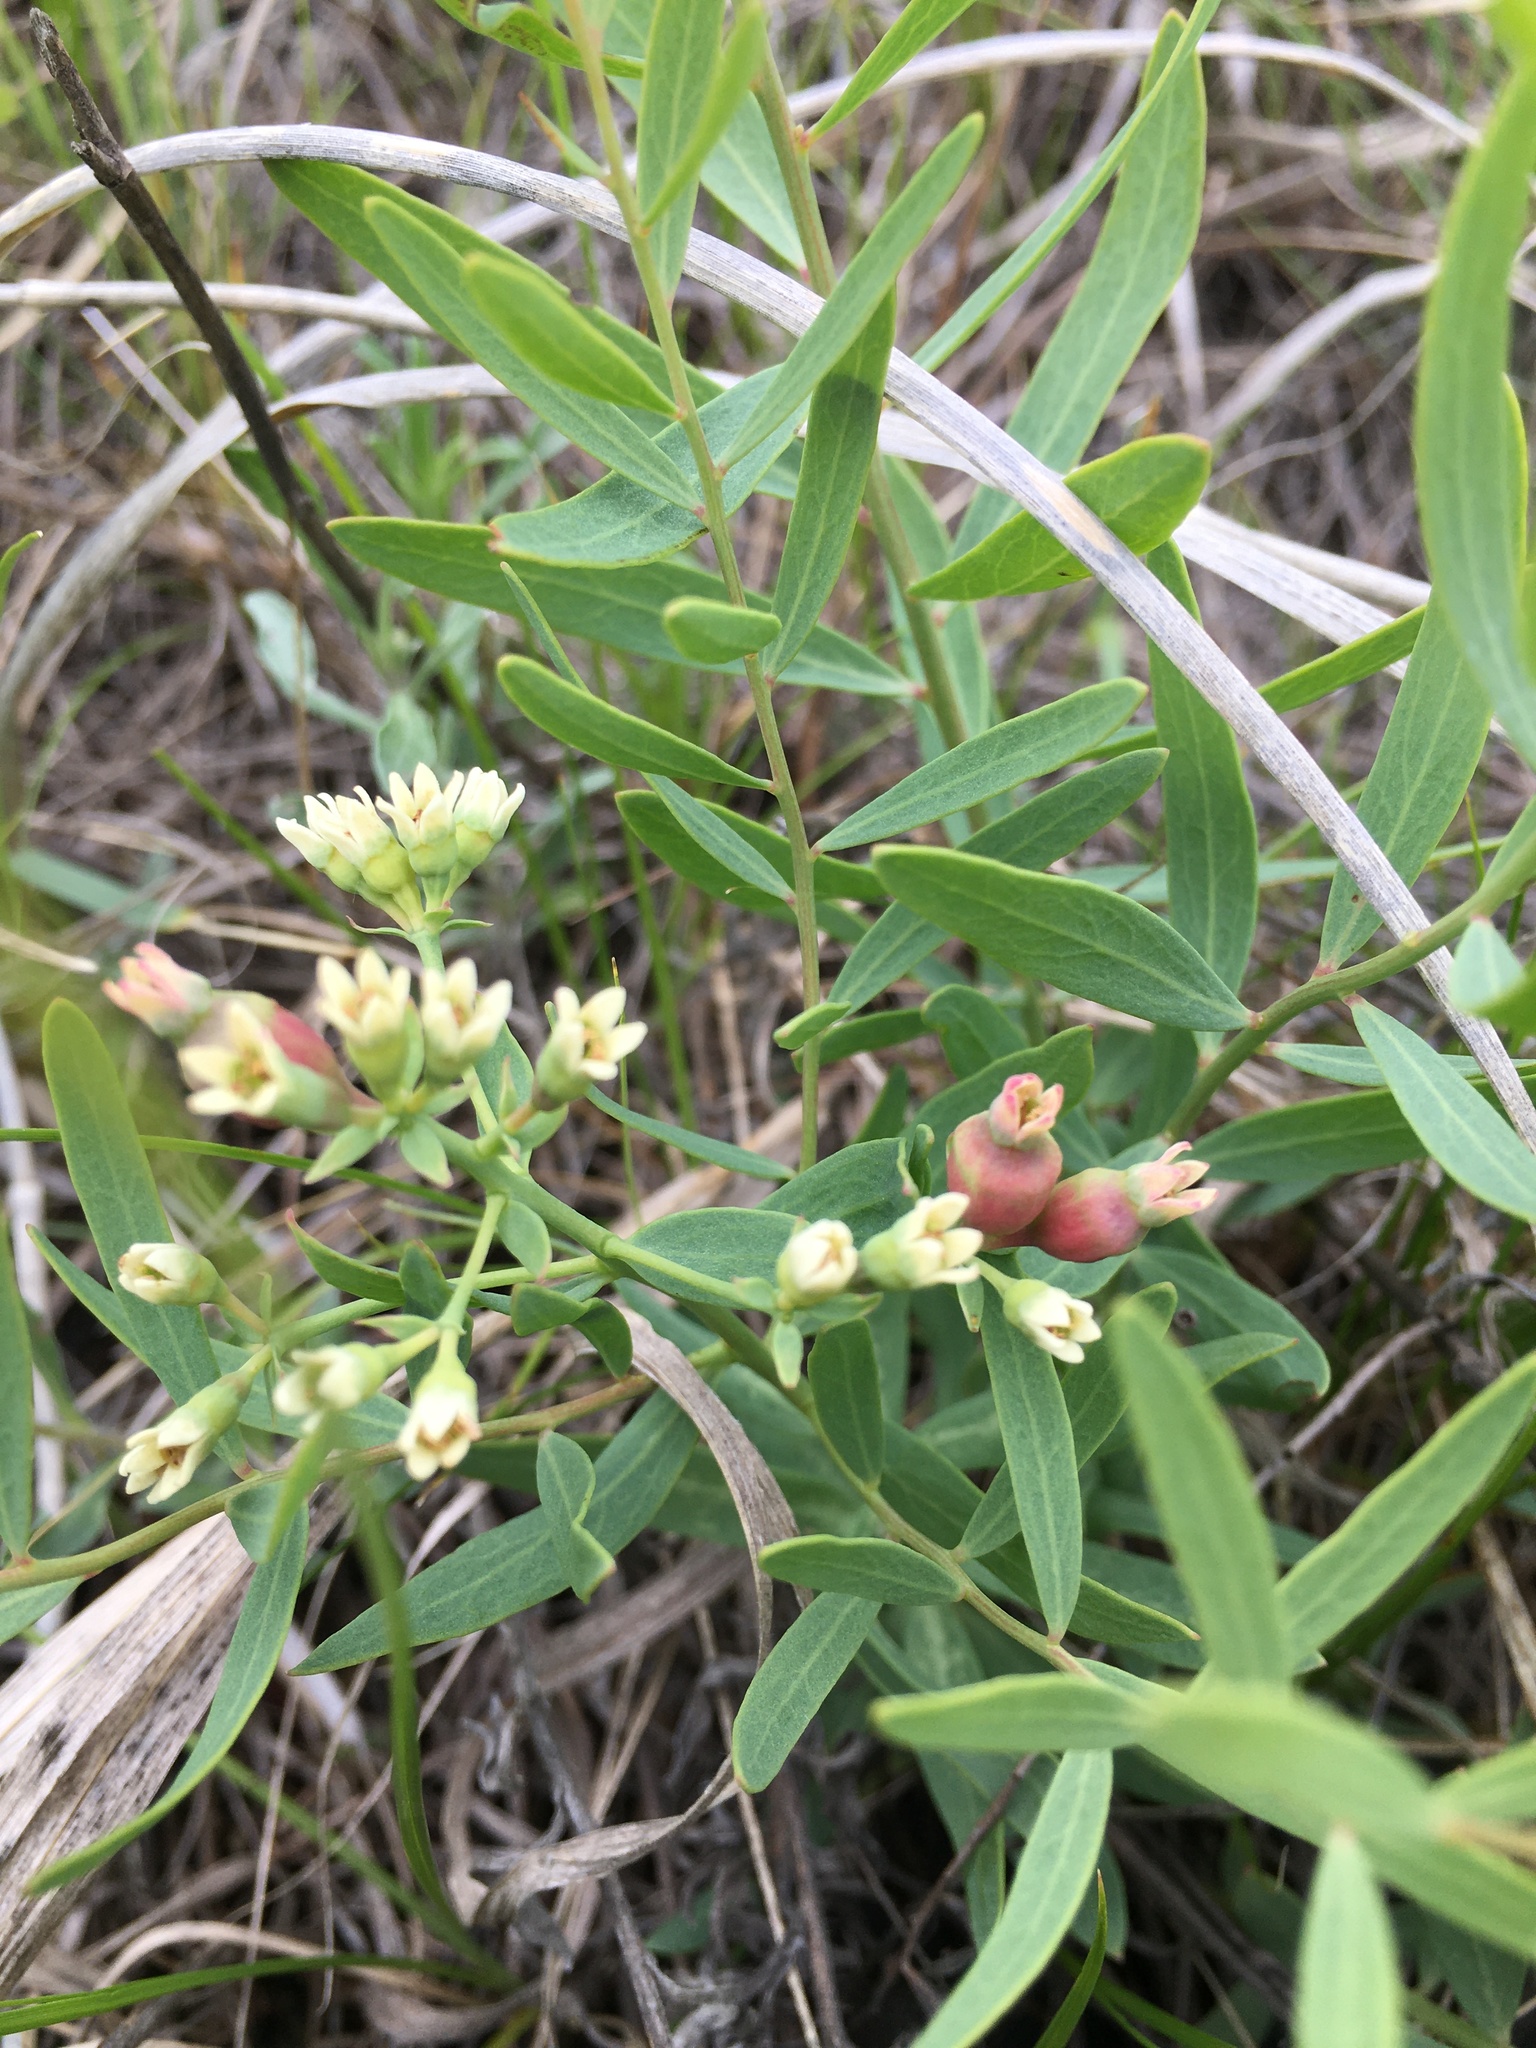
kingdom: Plantae
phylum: Tracheophyta
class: Magnoliopsida
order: Santalales
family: Comandraceae
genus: Comandra
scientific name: Comandra umbellata
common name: Bastard toadflax
